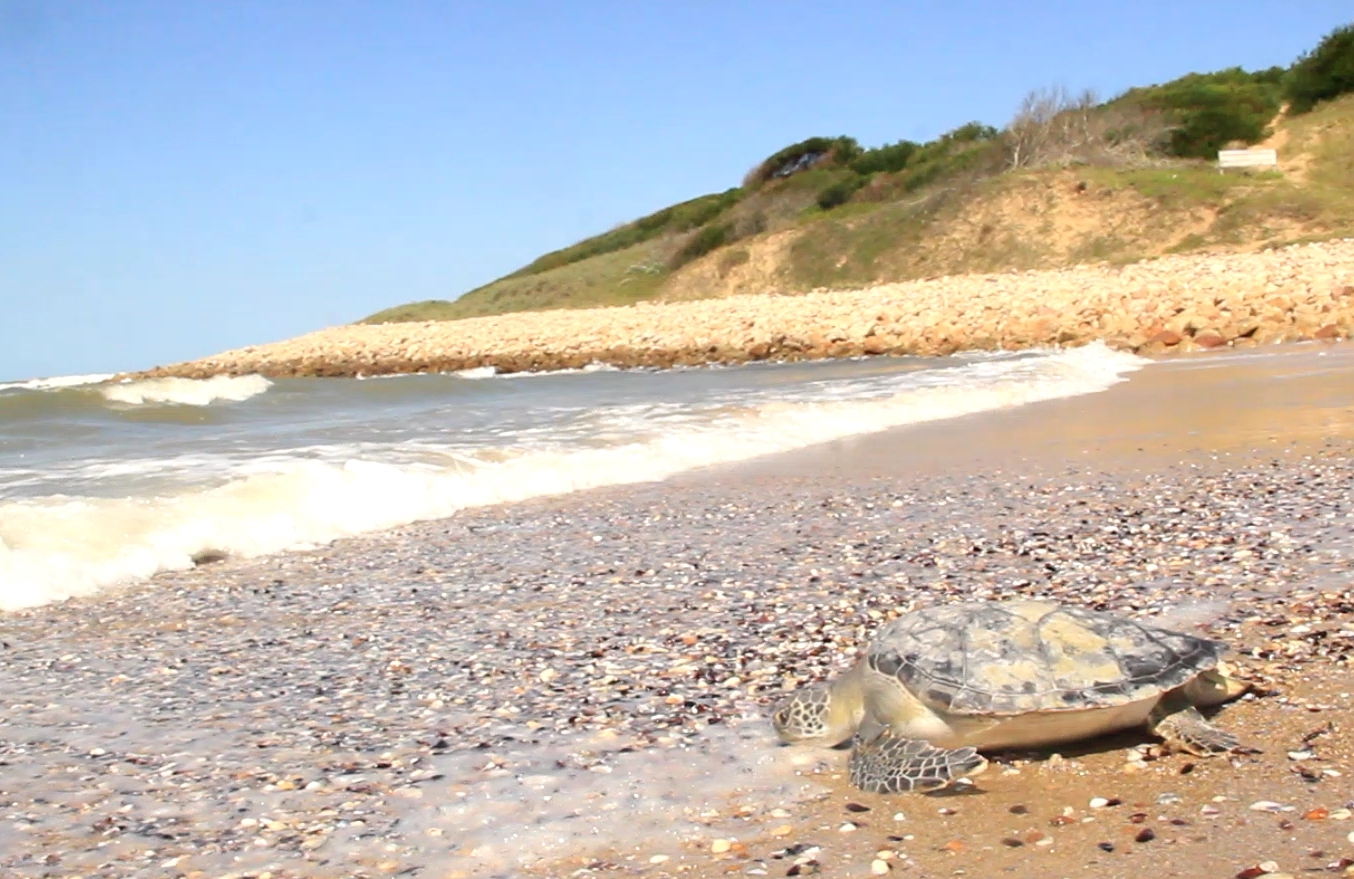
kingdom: Animalia
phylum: Chordata
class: Testudines
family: Cheloniidae
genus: Chelonia
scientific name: Chelonia mydas
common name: Green turtle
